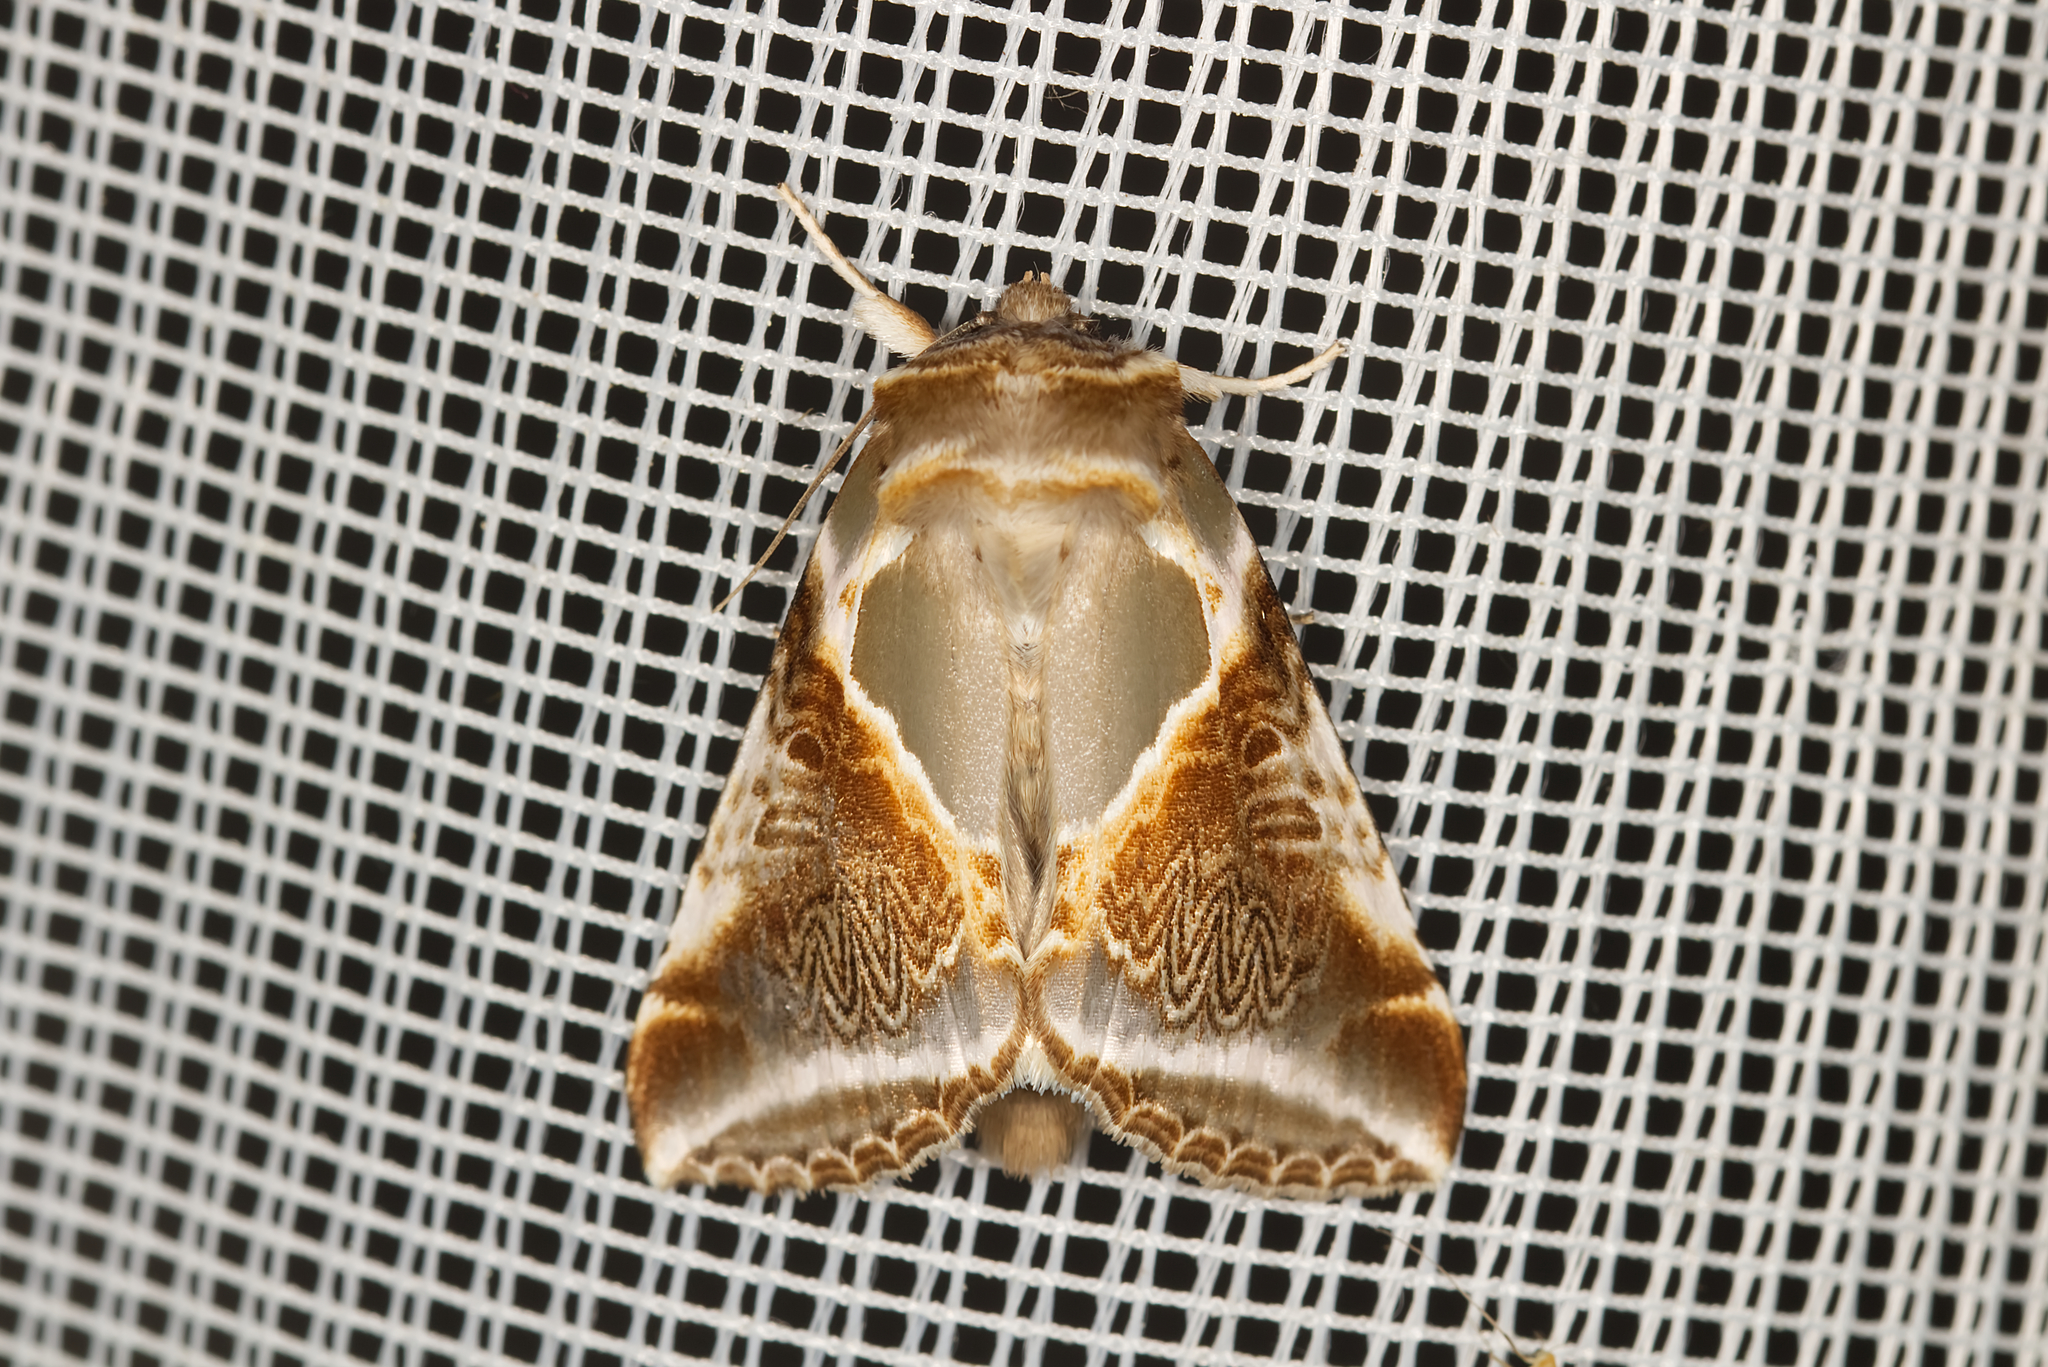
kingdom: Animalia
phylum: Arthropoda
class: Insecta
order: Lepidoptera
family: Drepanidae
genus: Habrosyne
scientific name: Habrosyne pyritoides
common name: Buff arches
